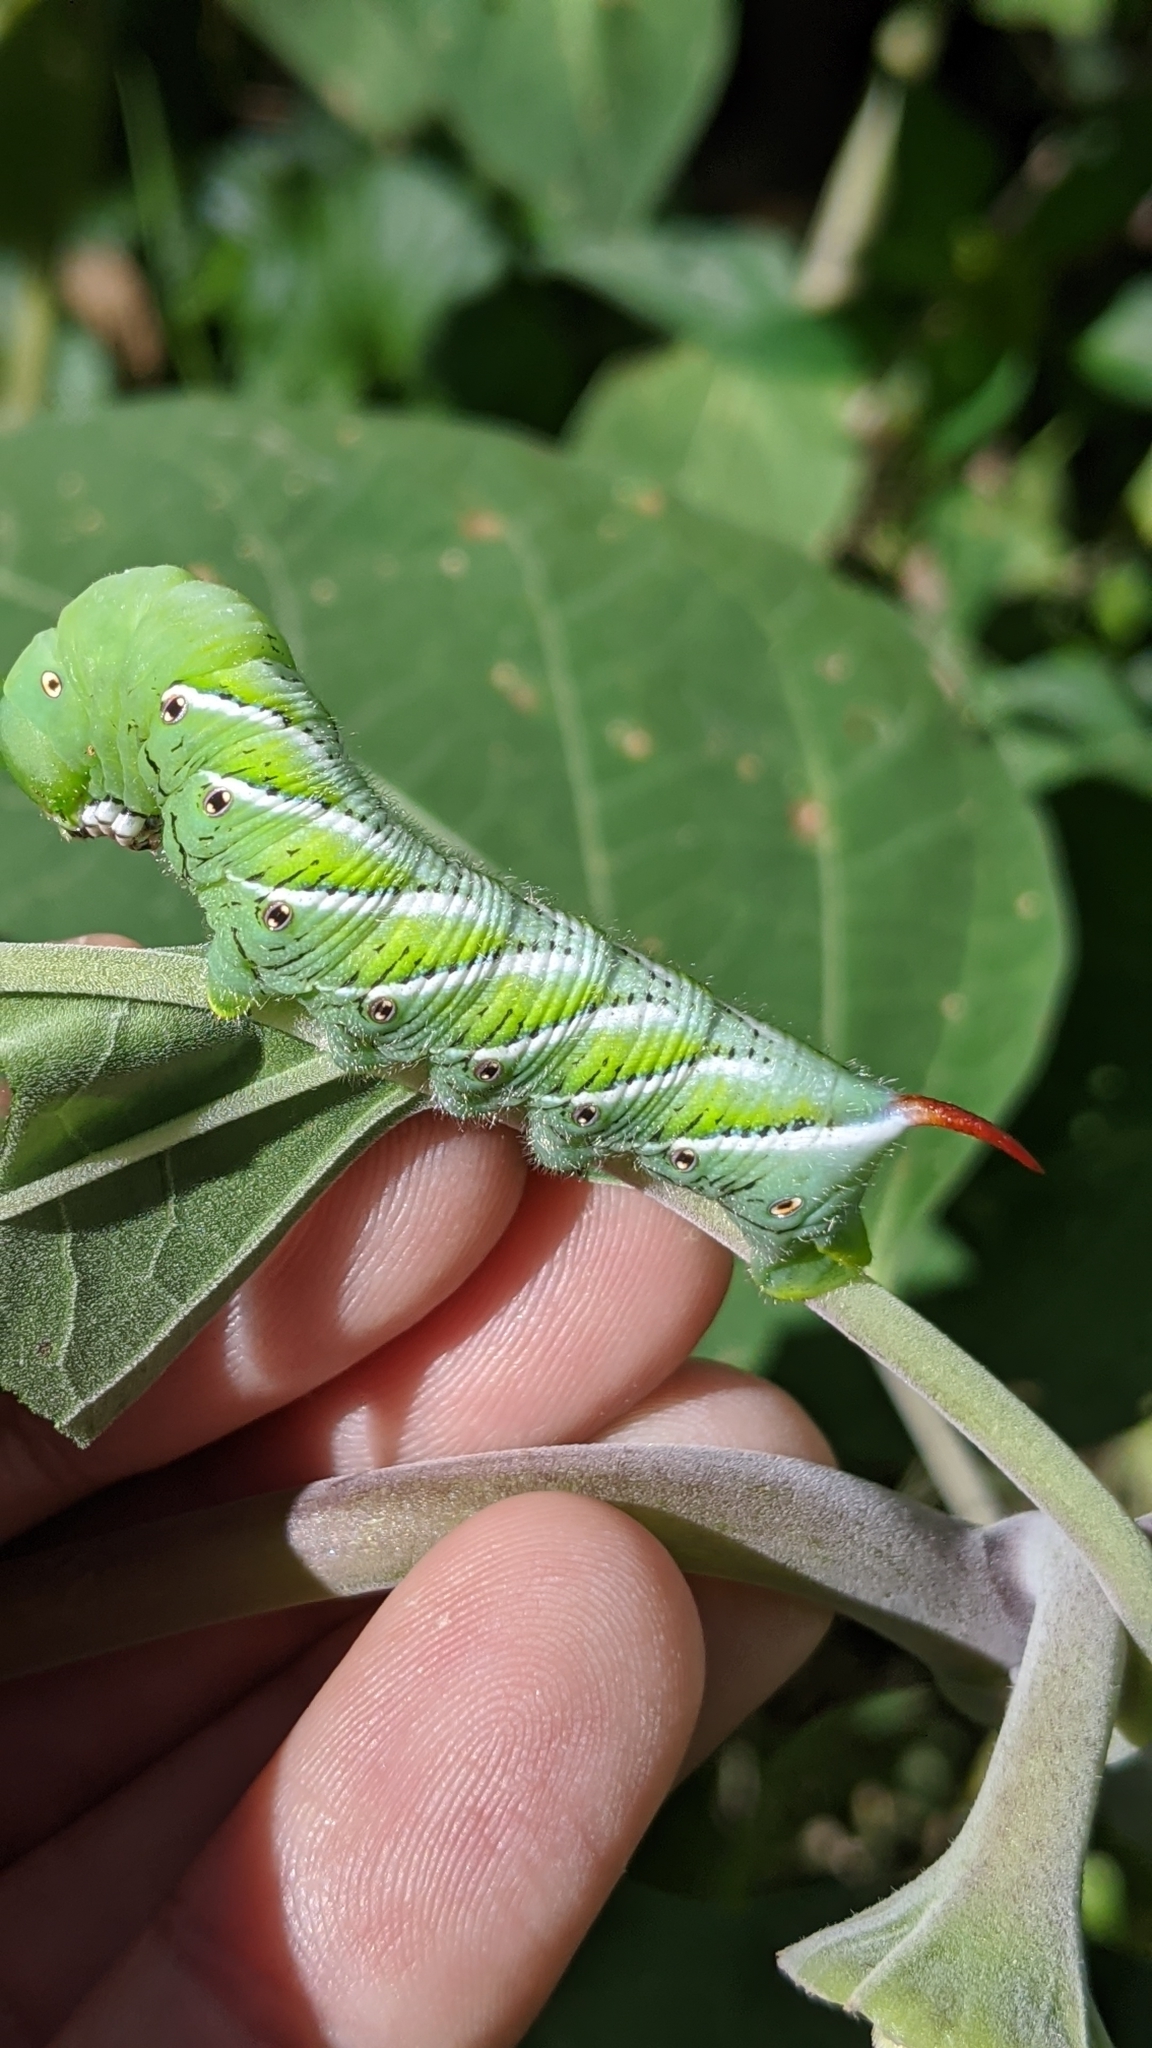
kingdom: Animalia
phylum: Arthropoda
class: Insecta
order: Lepidoptera
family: Sphingidae
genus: Manduca
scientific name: Manduca sexta
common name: Carolina sphinx
